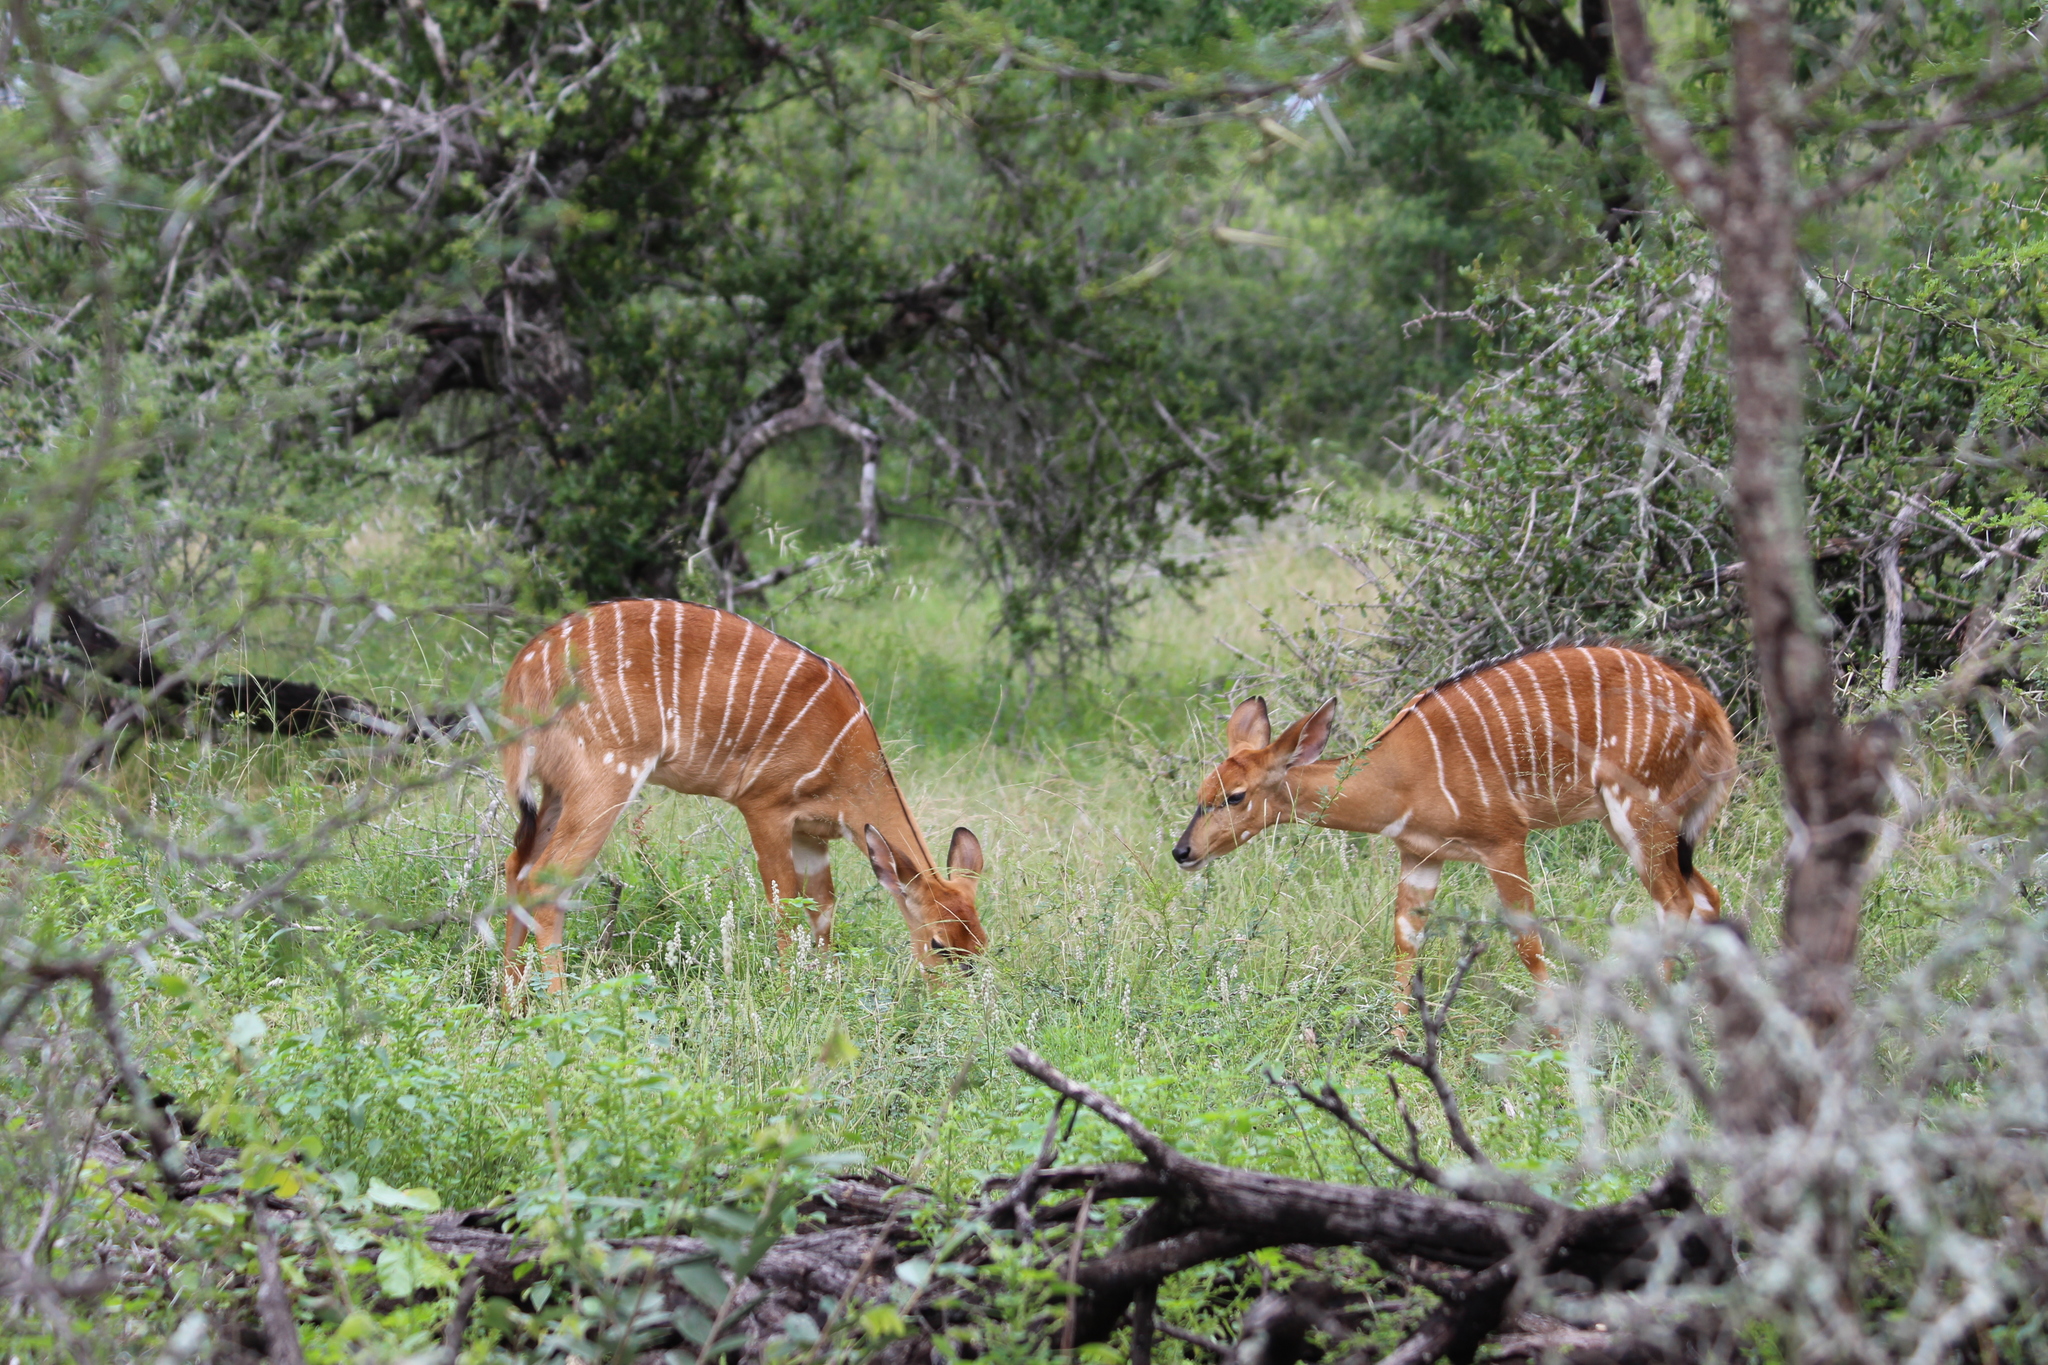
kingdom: Animalia
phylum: Chordata
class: Mammalia
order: Artiodactyla
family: Bovidae
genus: Tragelaphus
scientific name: Tragelaphus angasii
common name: Nyala
